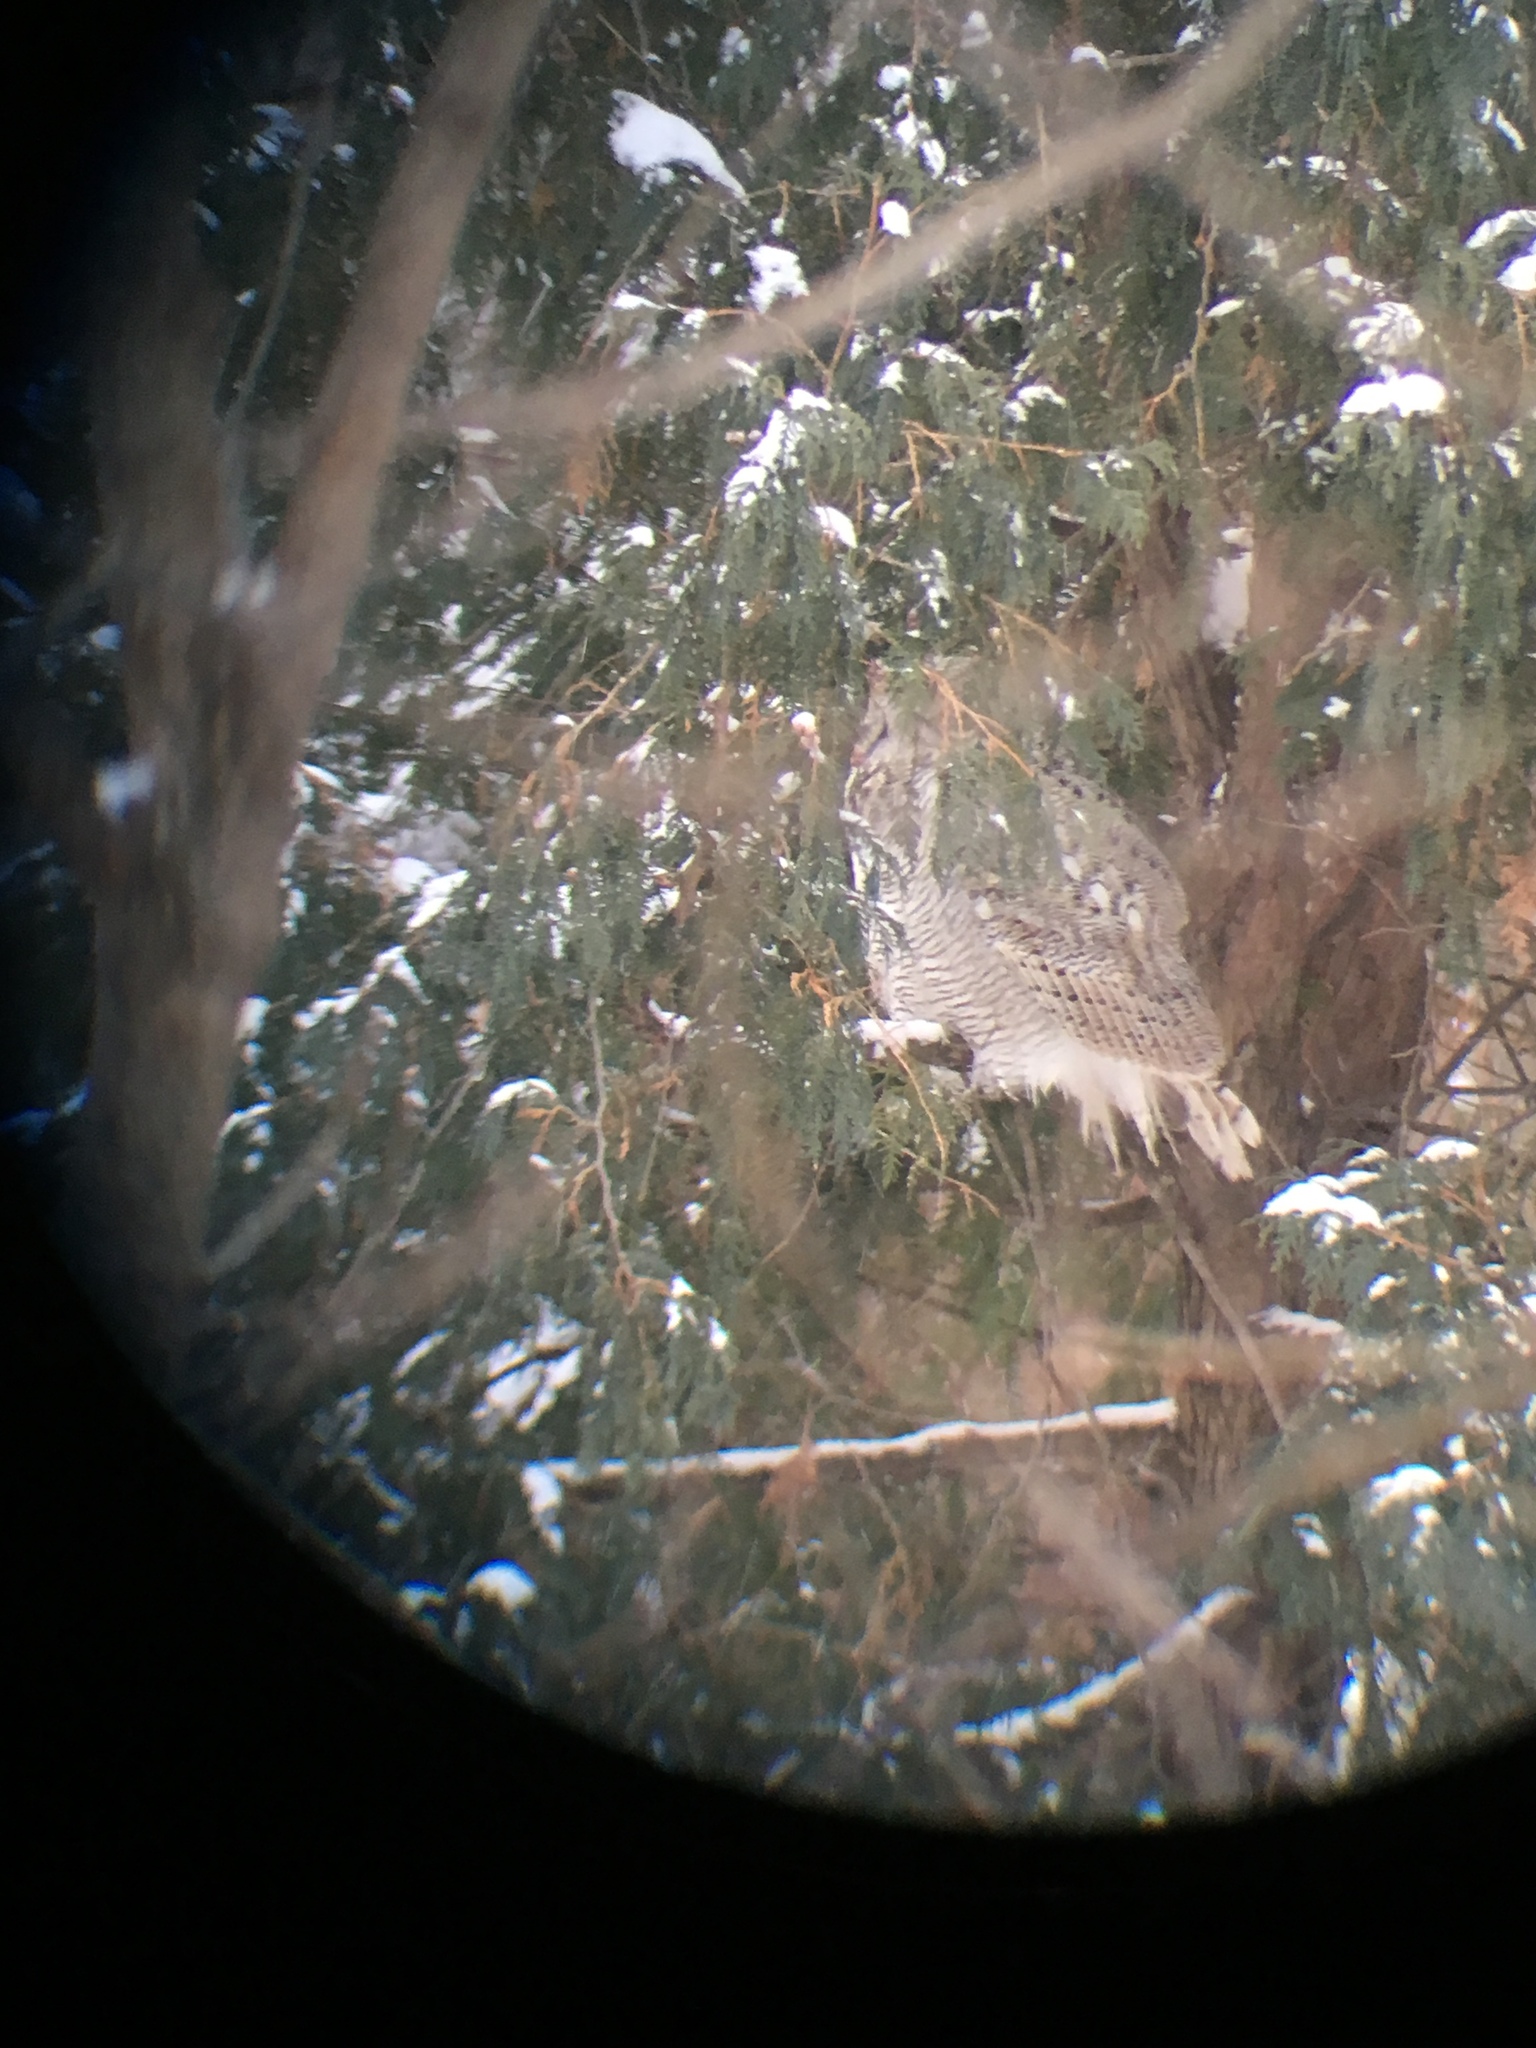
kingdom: Animalia
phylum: Chordata
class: Aves
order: Strigiformes
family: Strigidae
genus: Bubo
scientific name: Bubo virginianus
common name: Great horned owl
